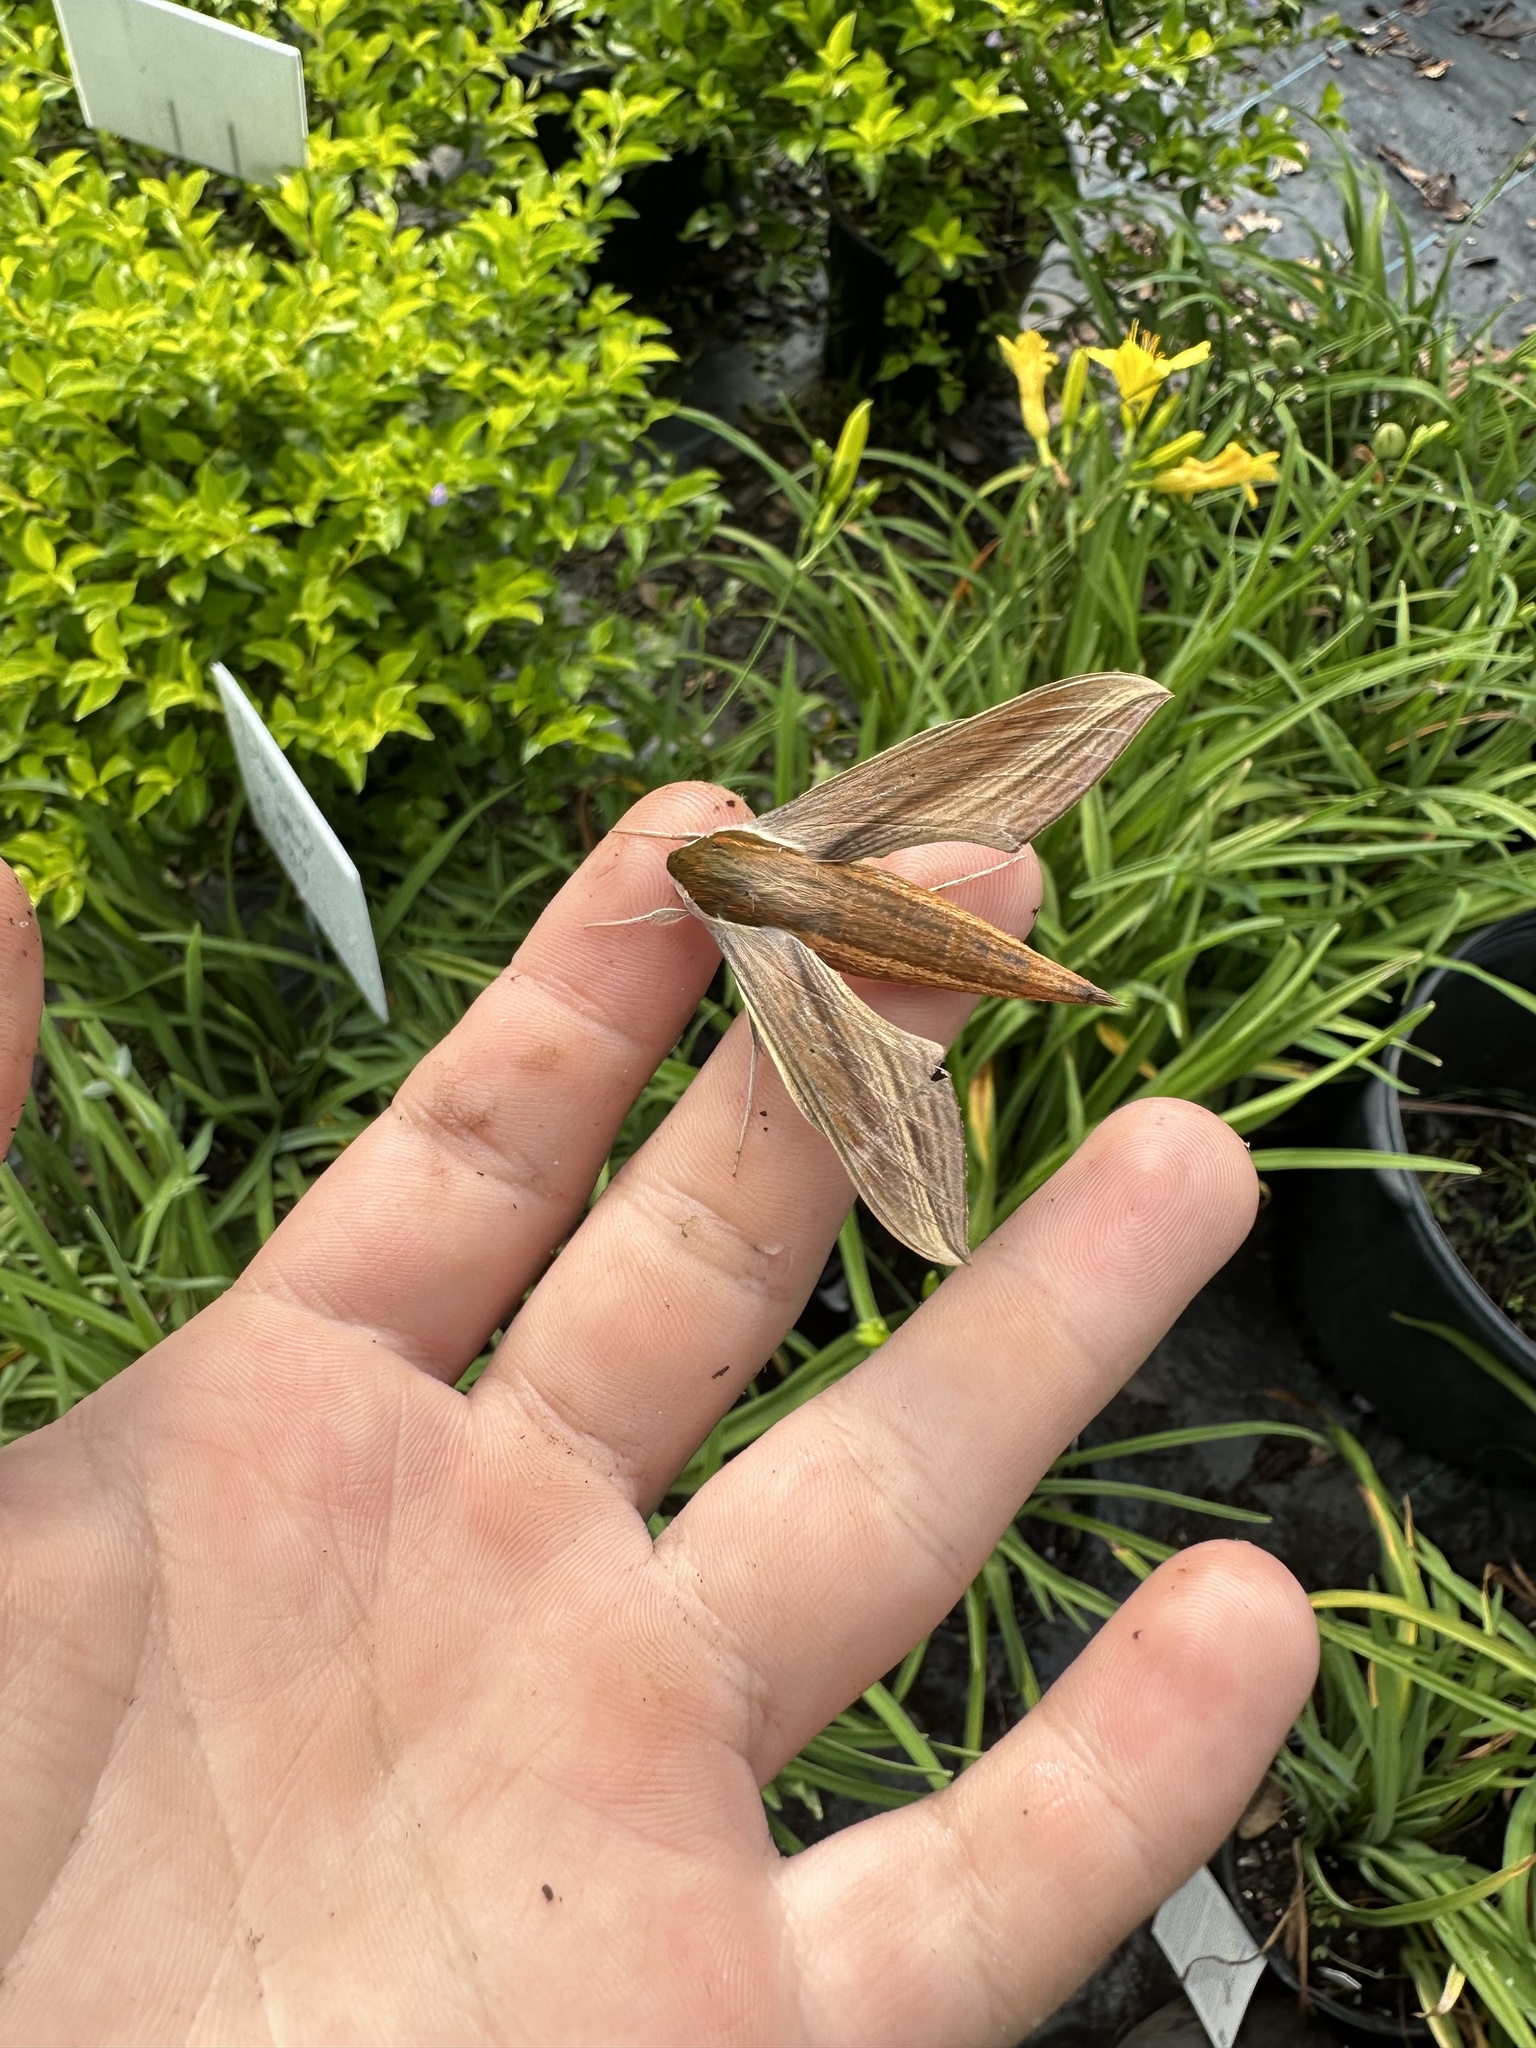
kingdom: Animalia
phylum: Arthropoda
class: Insecta
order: Lepidoptera
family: Sphingidae
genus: Xylophanes
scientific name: Xylophanes tersa
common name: Tersa sphinx
